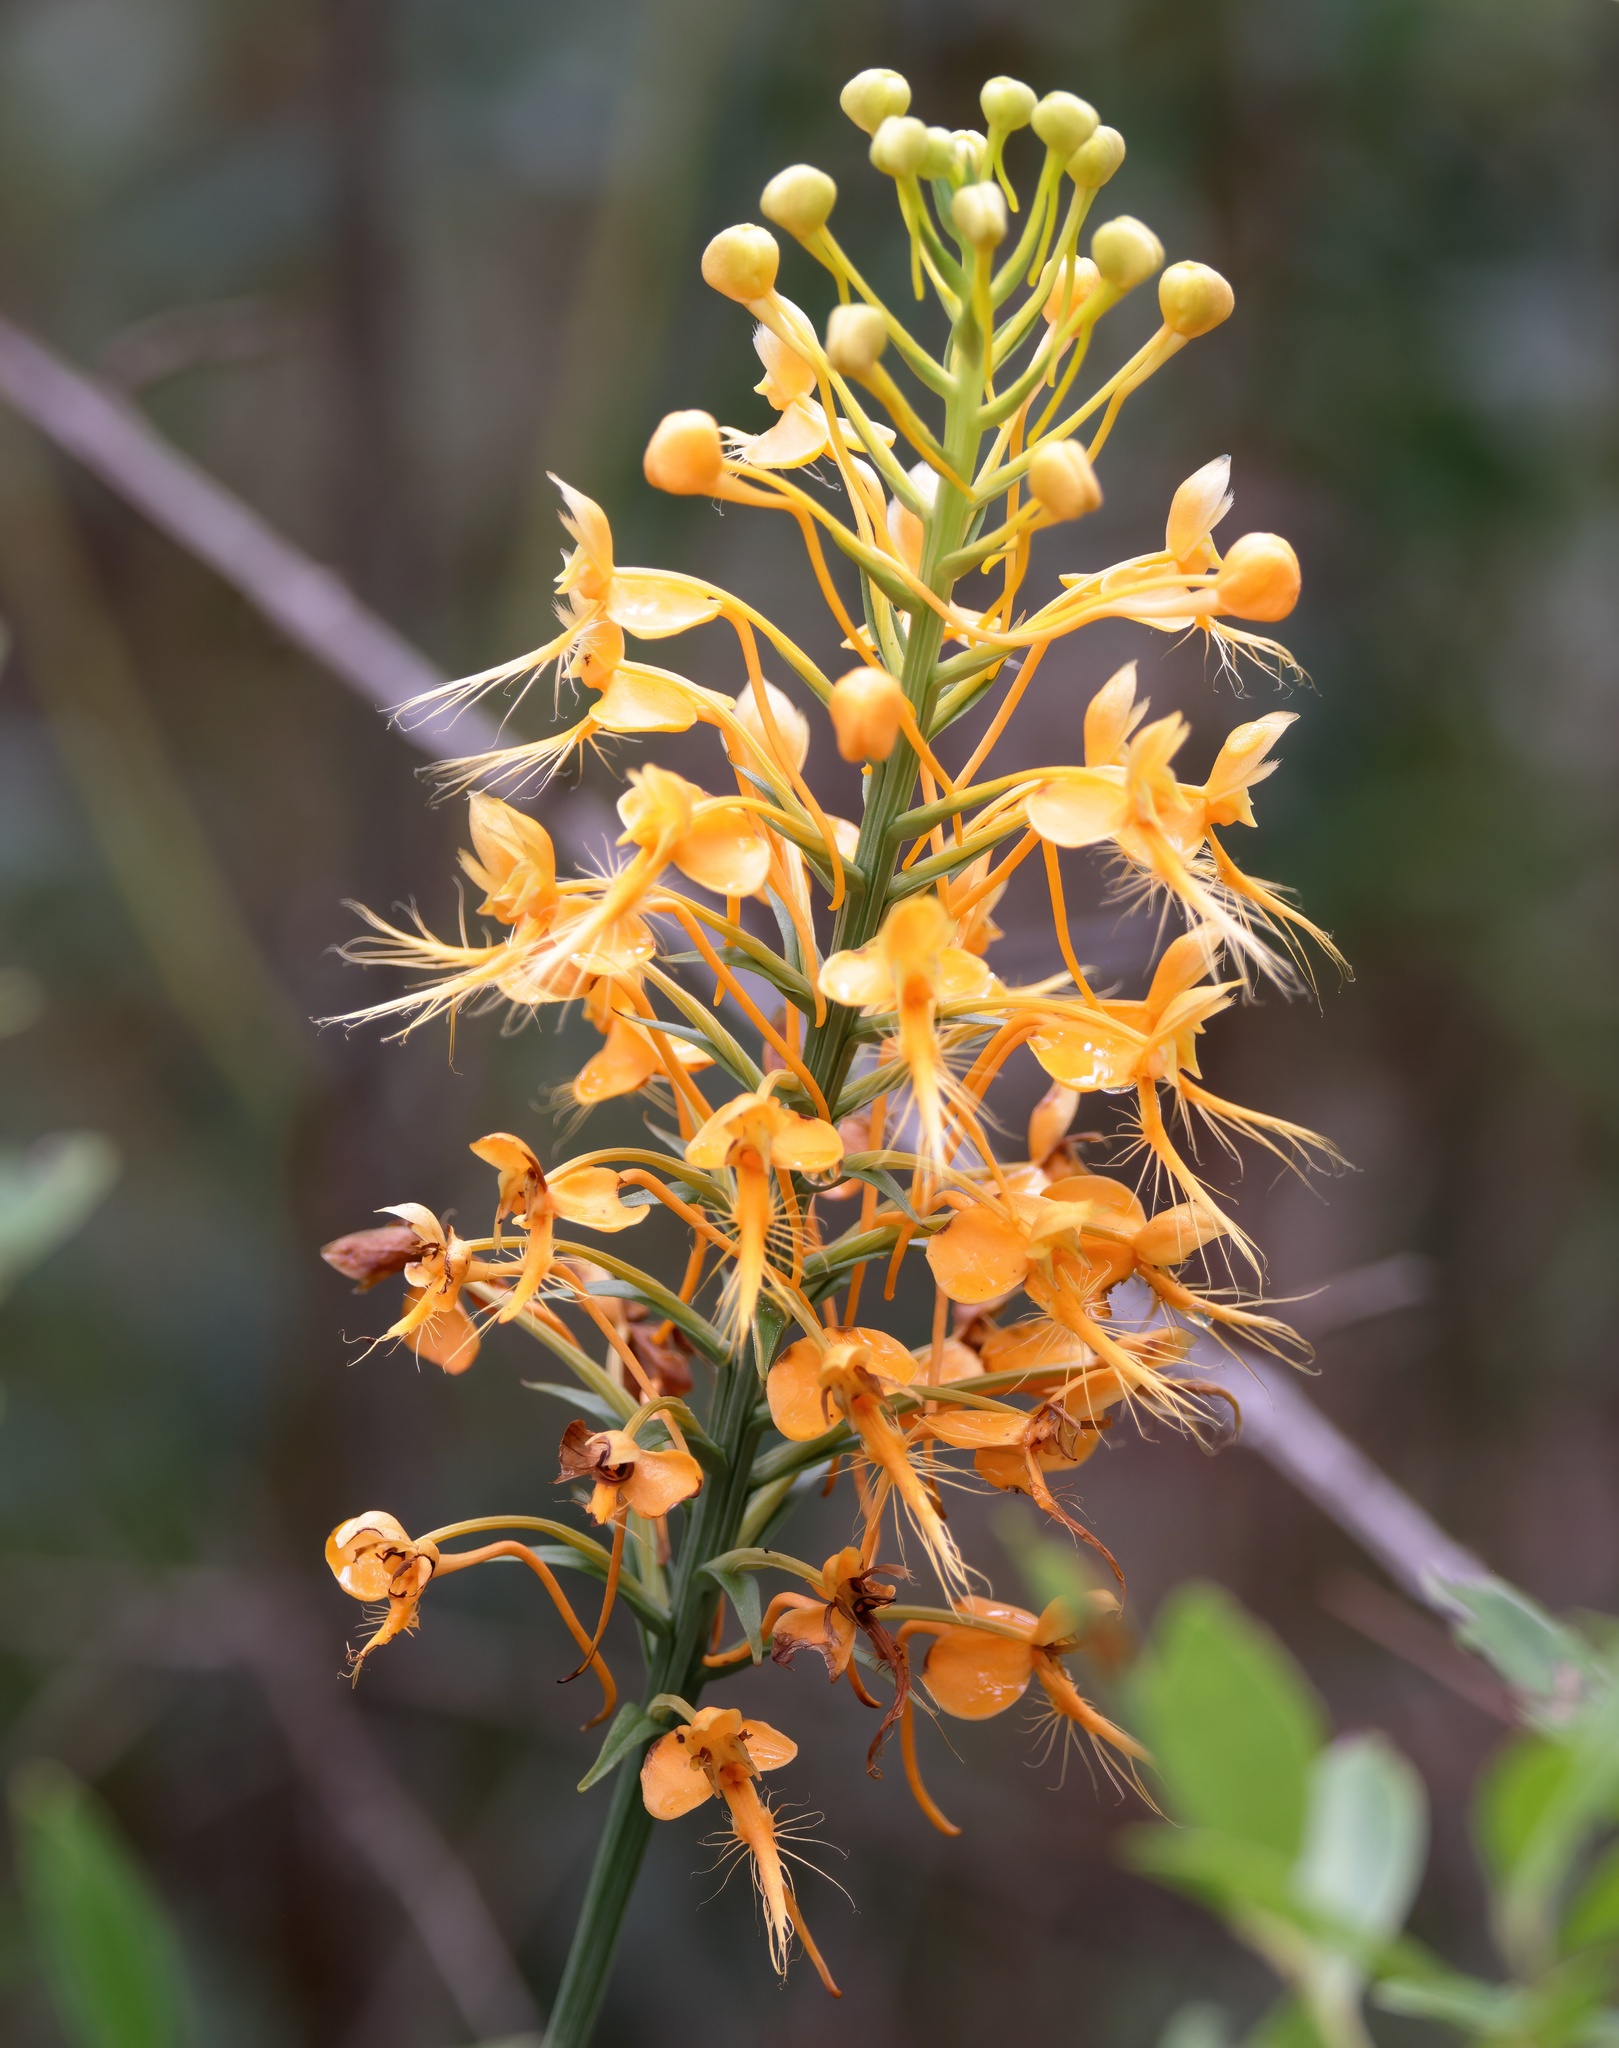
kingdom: Plantae
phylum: Tracheophyta
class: Liliopsida
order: Asparagales
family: Orchidaceae
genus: Platanthera
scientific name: Platanthera ciliaris
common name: Yellow fringed orchid
